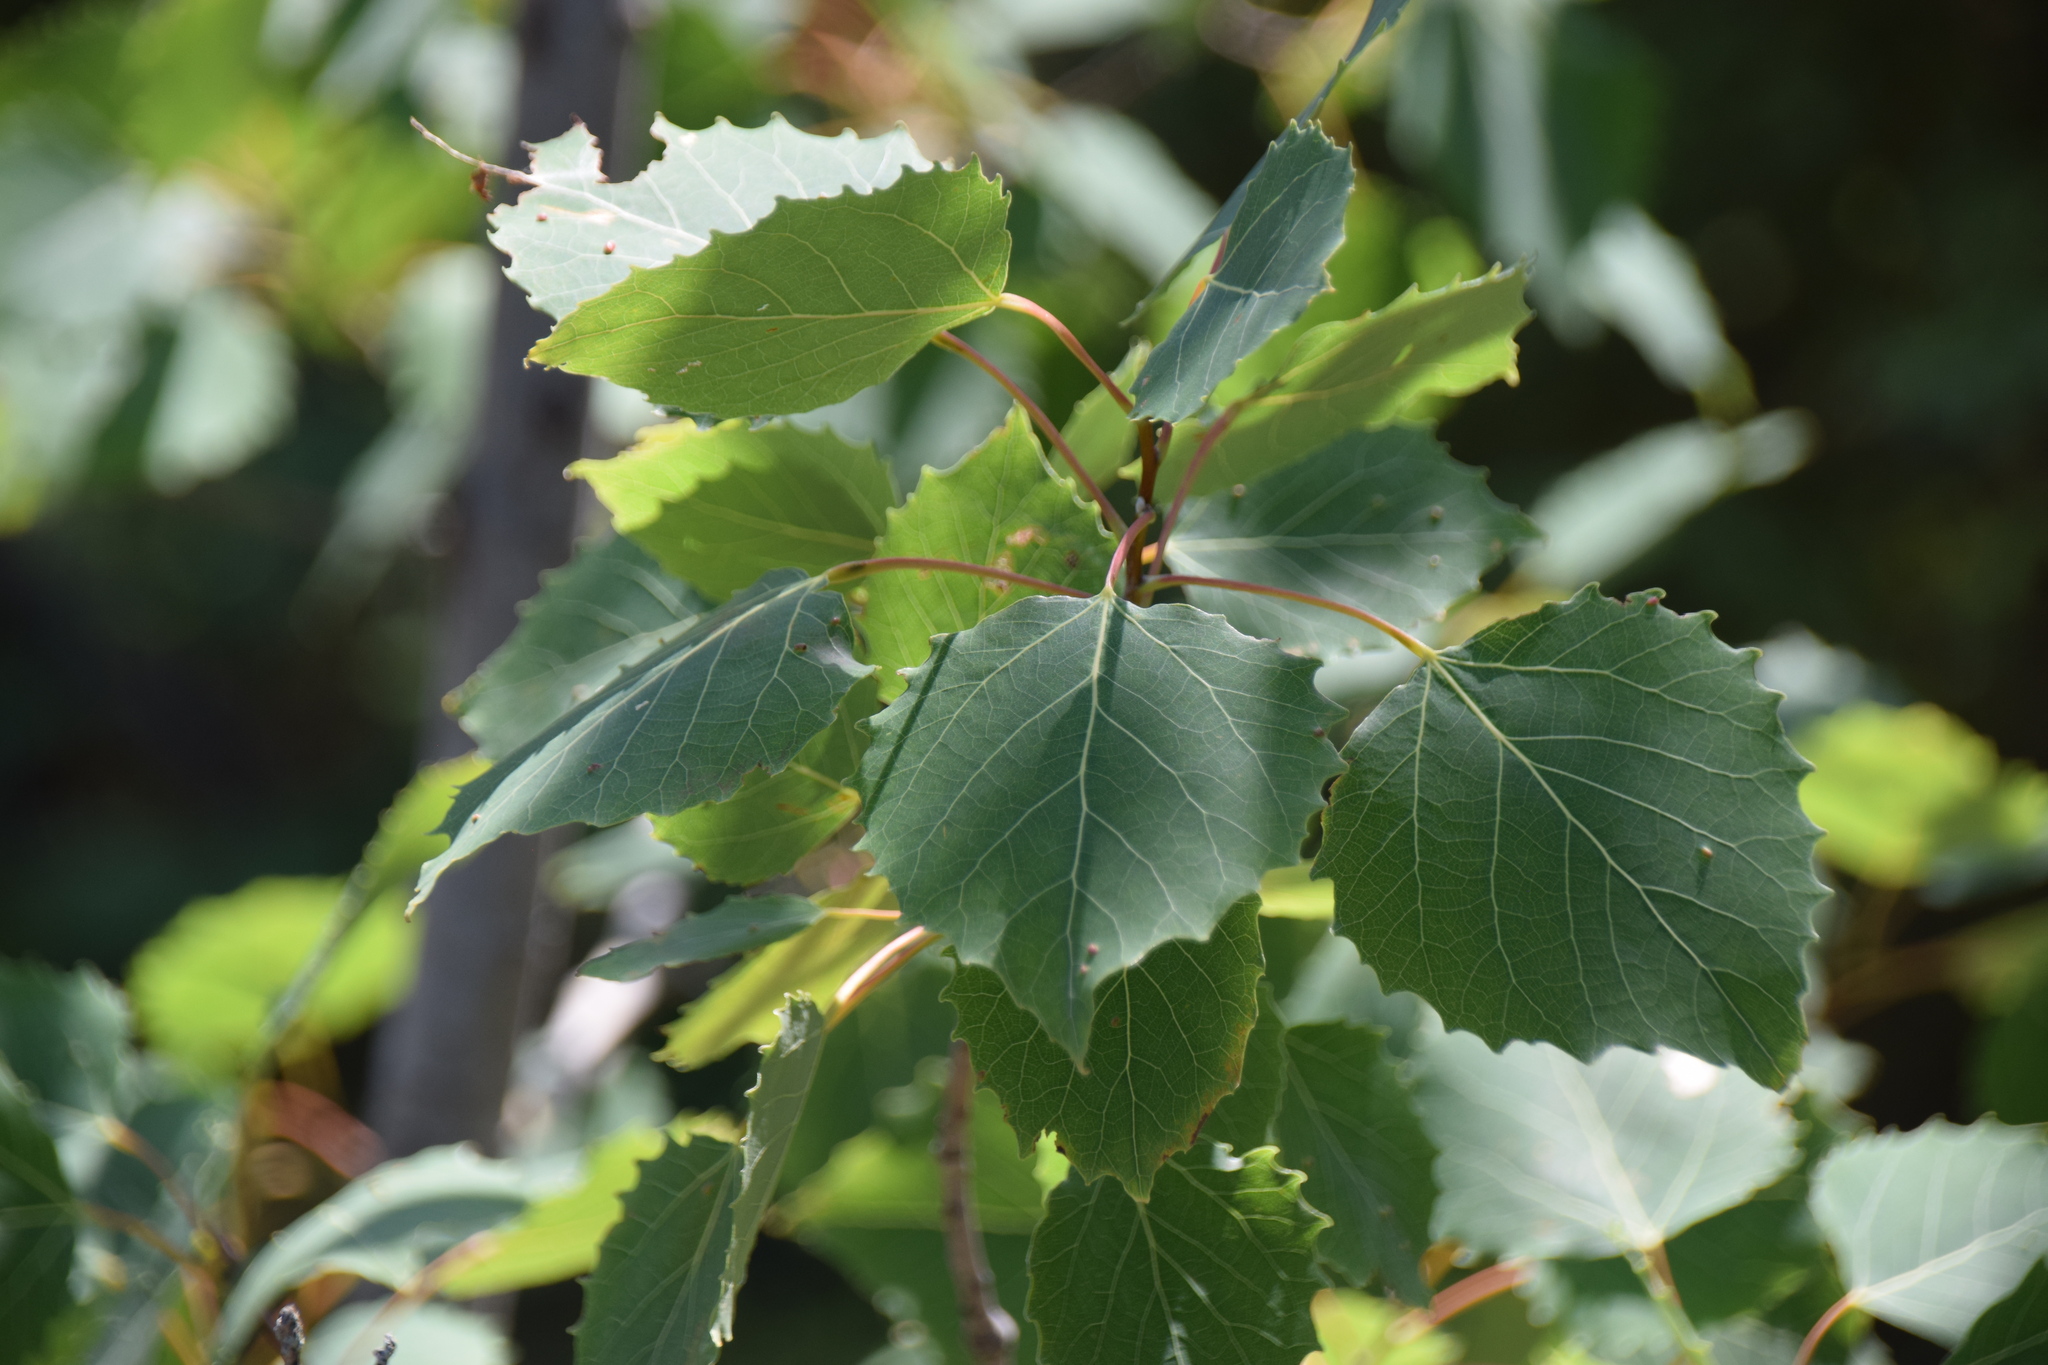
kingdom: Plantae
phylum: Tracheophyta
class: Magnoliopsida
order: Malpighiales
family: Salicaceae
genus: Populus
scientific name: Populus grandidentata
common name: Bigtooth aspen
